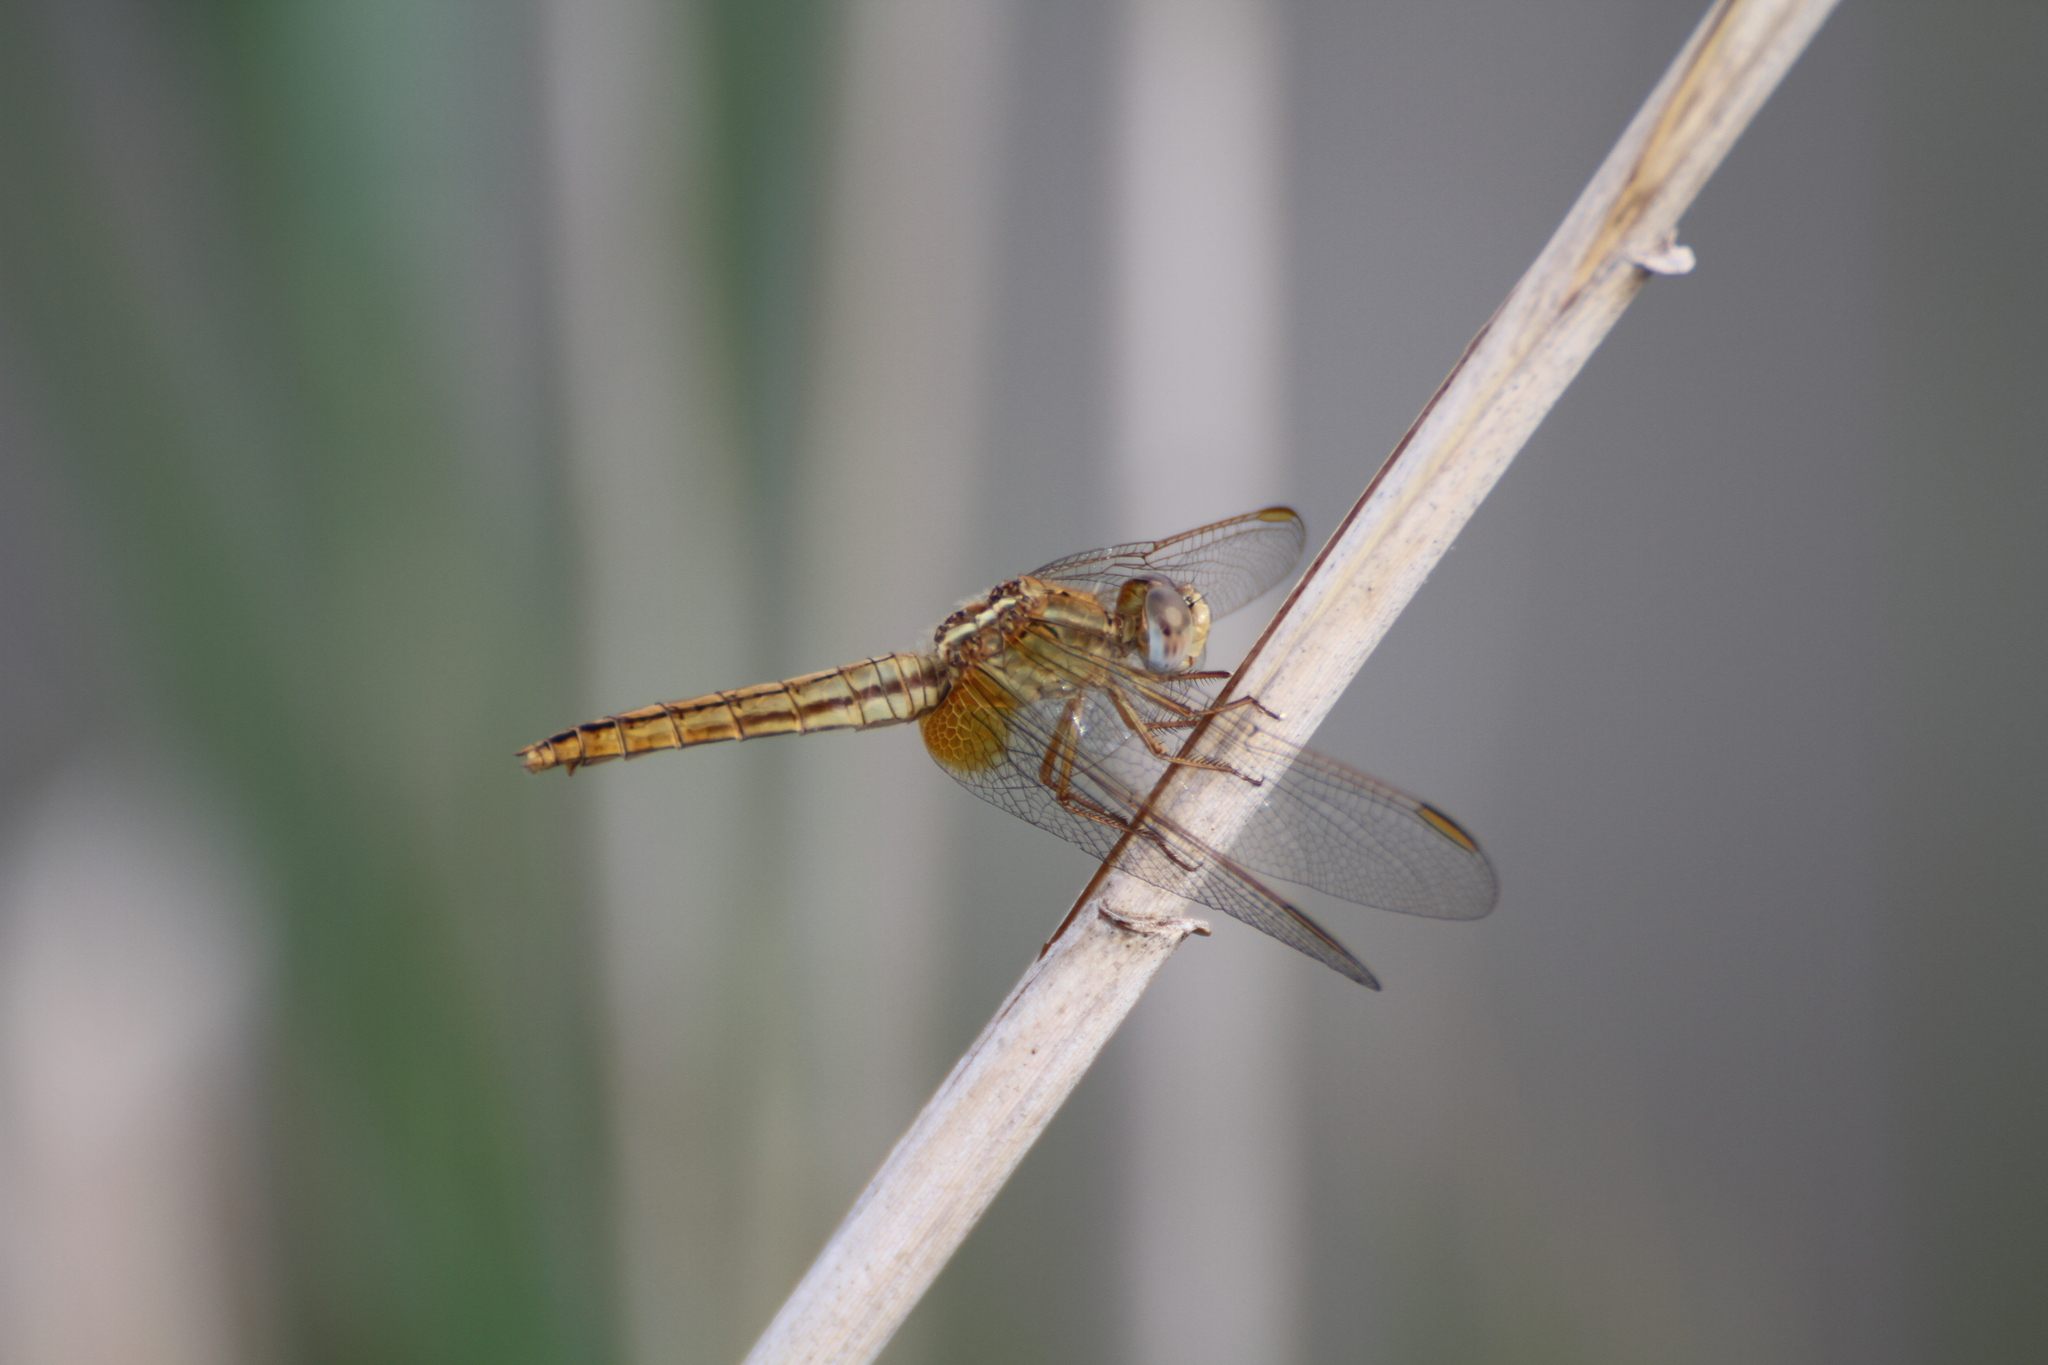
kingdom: Animalia
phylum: Arthropoda
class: Insecta
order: Odonata
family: Libellulidae
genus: Crocothemis
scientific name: Crocothemis erythraea
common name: Scarlet dragonfly
